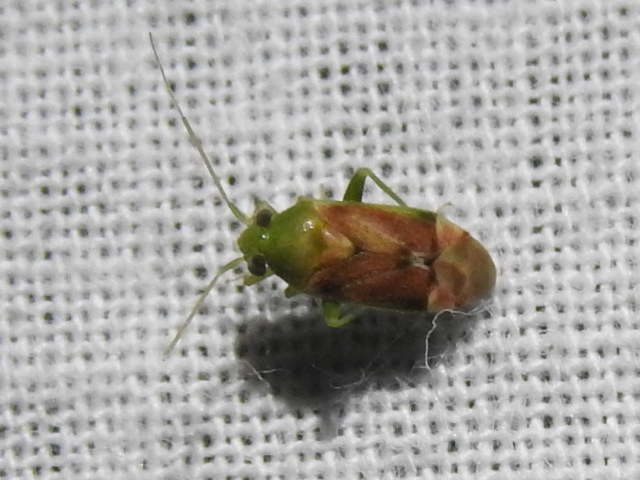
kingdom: Animalia
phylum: Arthropoda
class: Insecta
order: Hemiptera
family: Miridae
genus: Dichrooscytus
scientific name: Dichrooscytus
